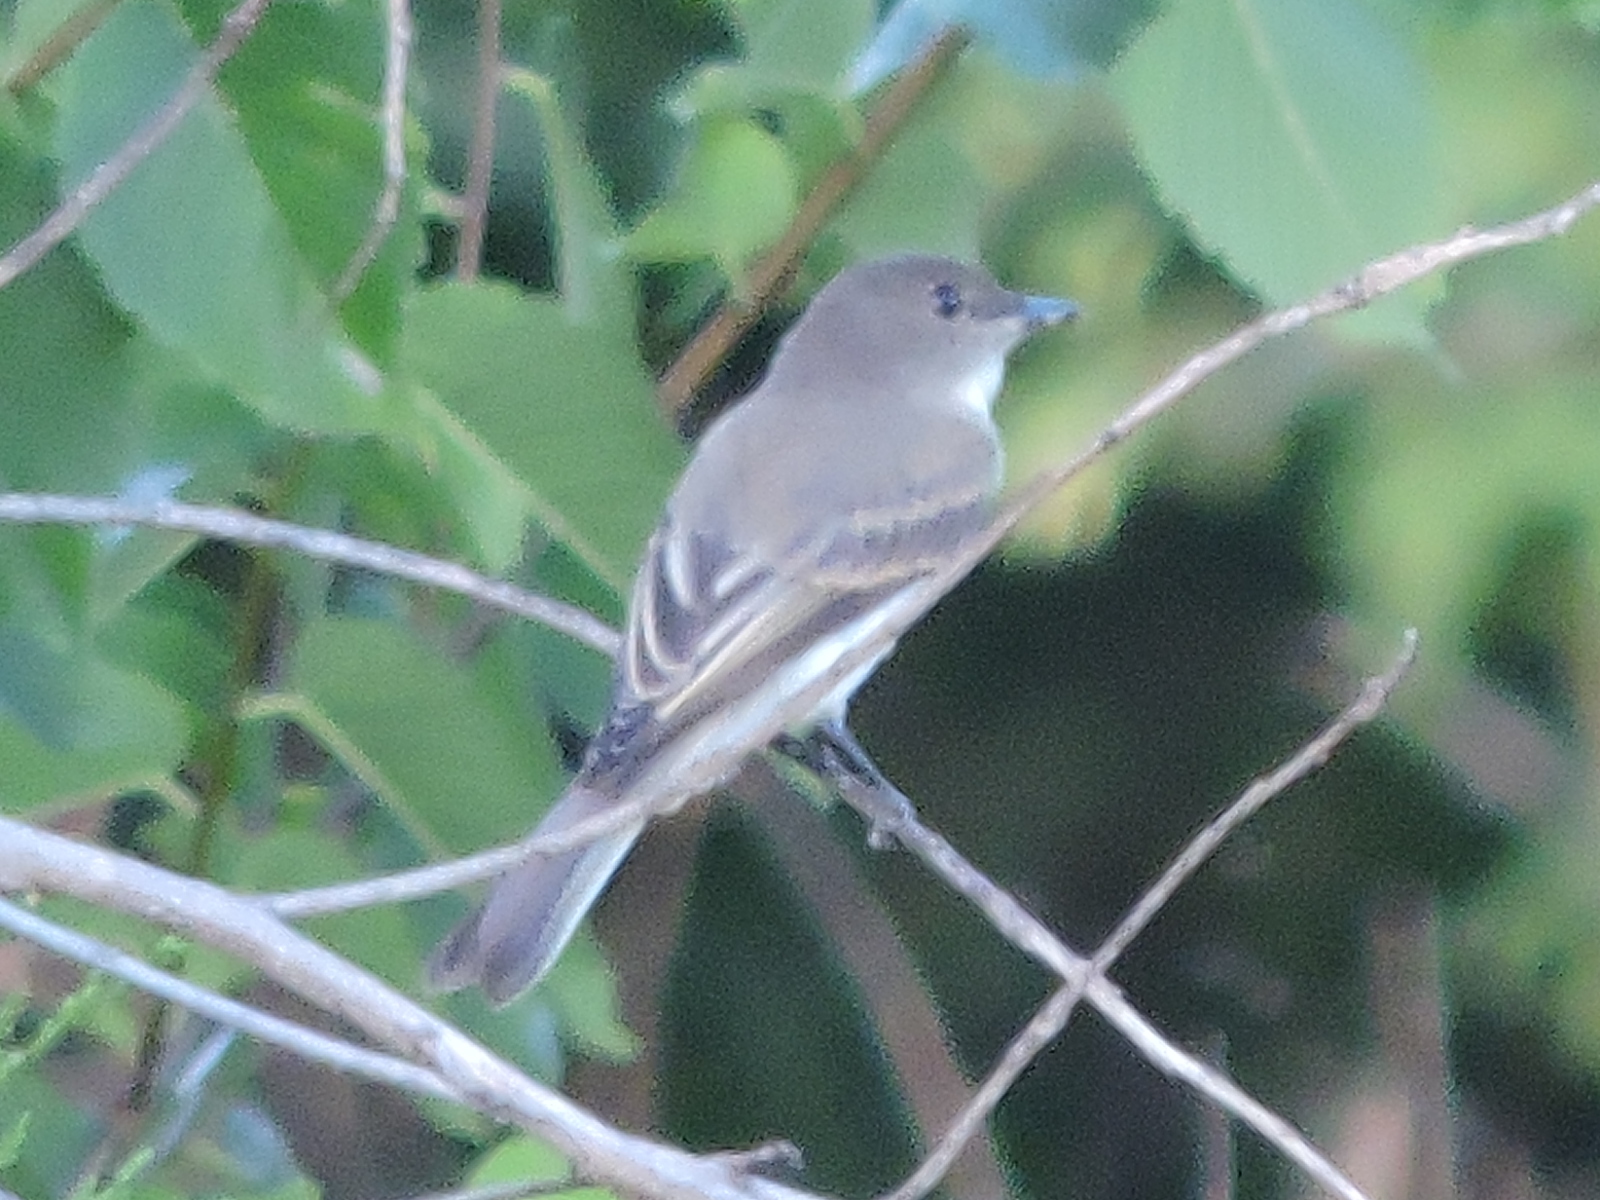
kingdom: Animalia
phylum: Chordata
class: Aves
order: Passeriformes
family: Tyrannidae
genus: Sayornis
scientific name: Sayornis phoebe
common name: Eastern phoebe
